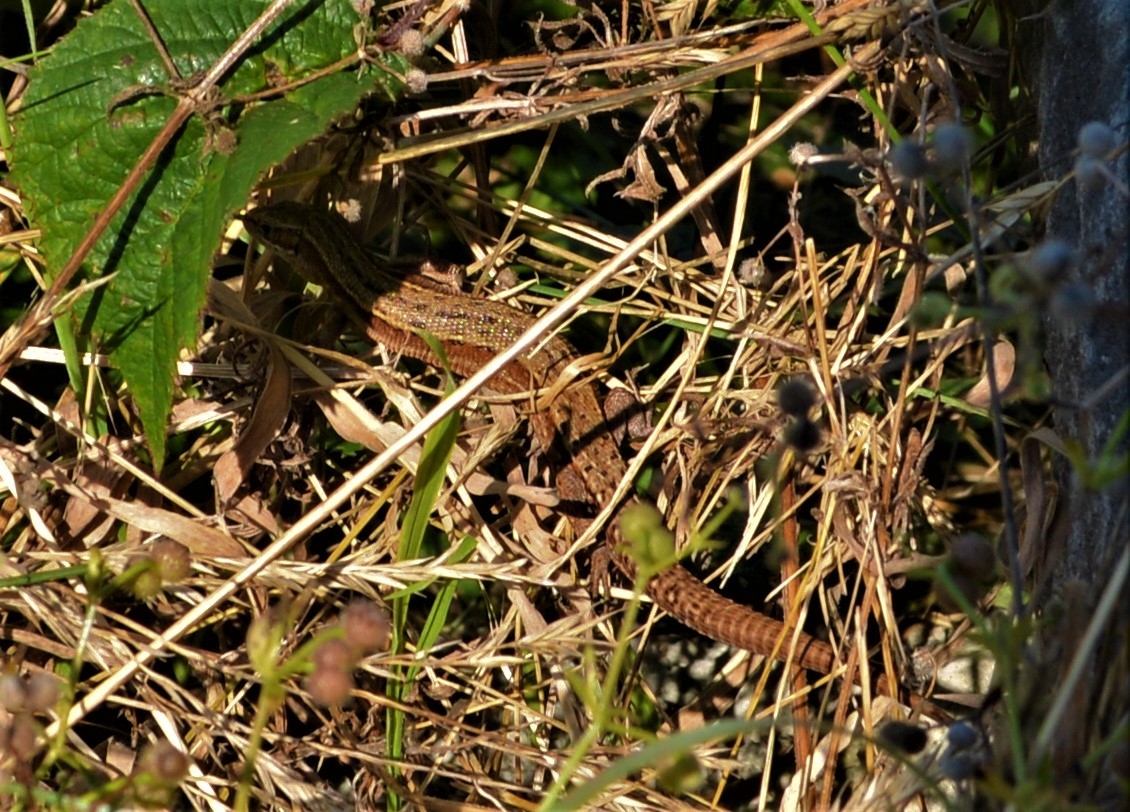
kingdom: Animalia
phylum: Chordata
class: Squamata
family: Lacertidae
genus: Zootoca
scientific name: Zootoca vivipara
